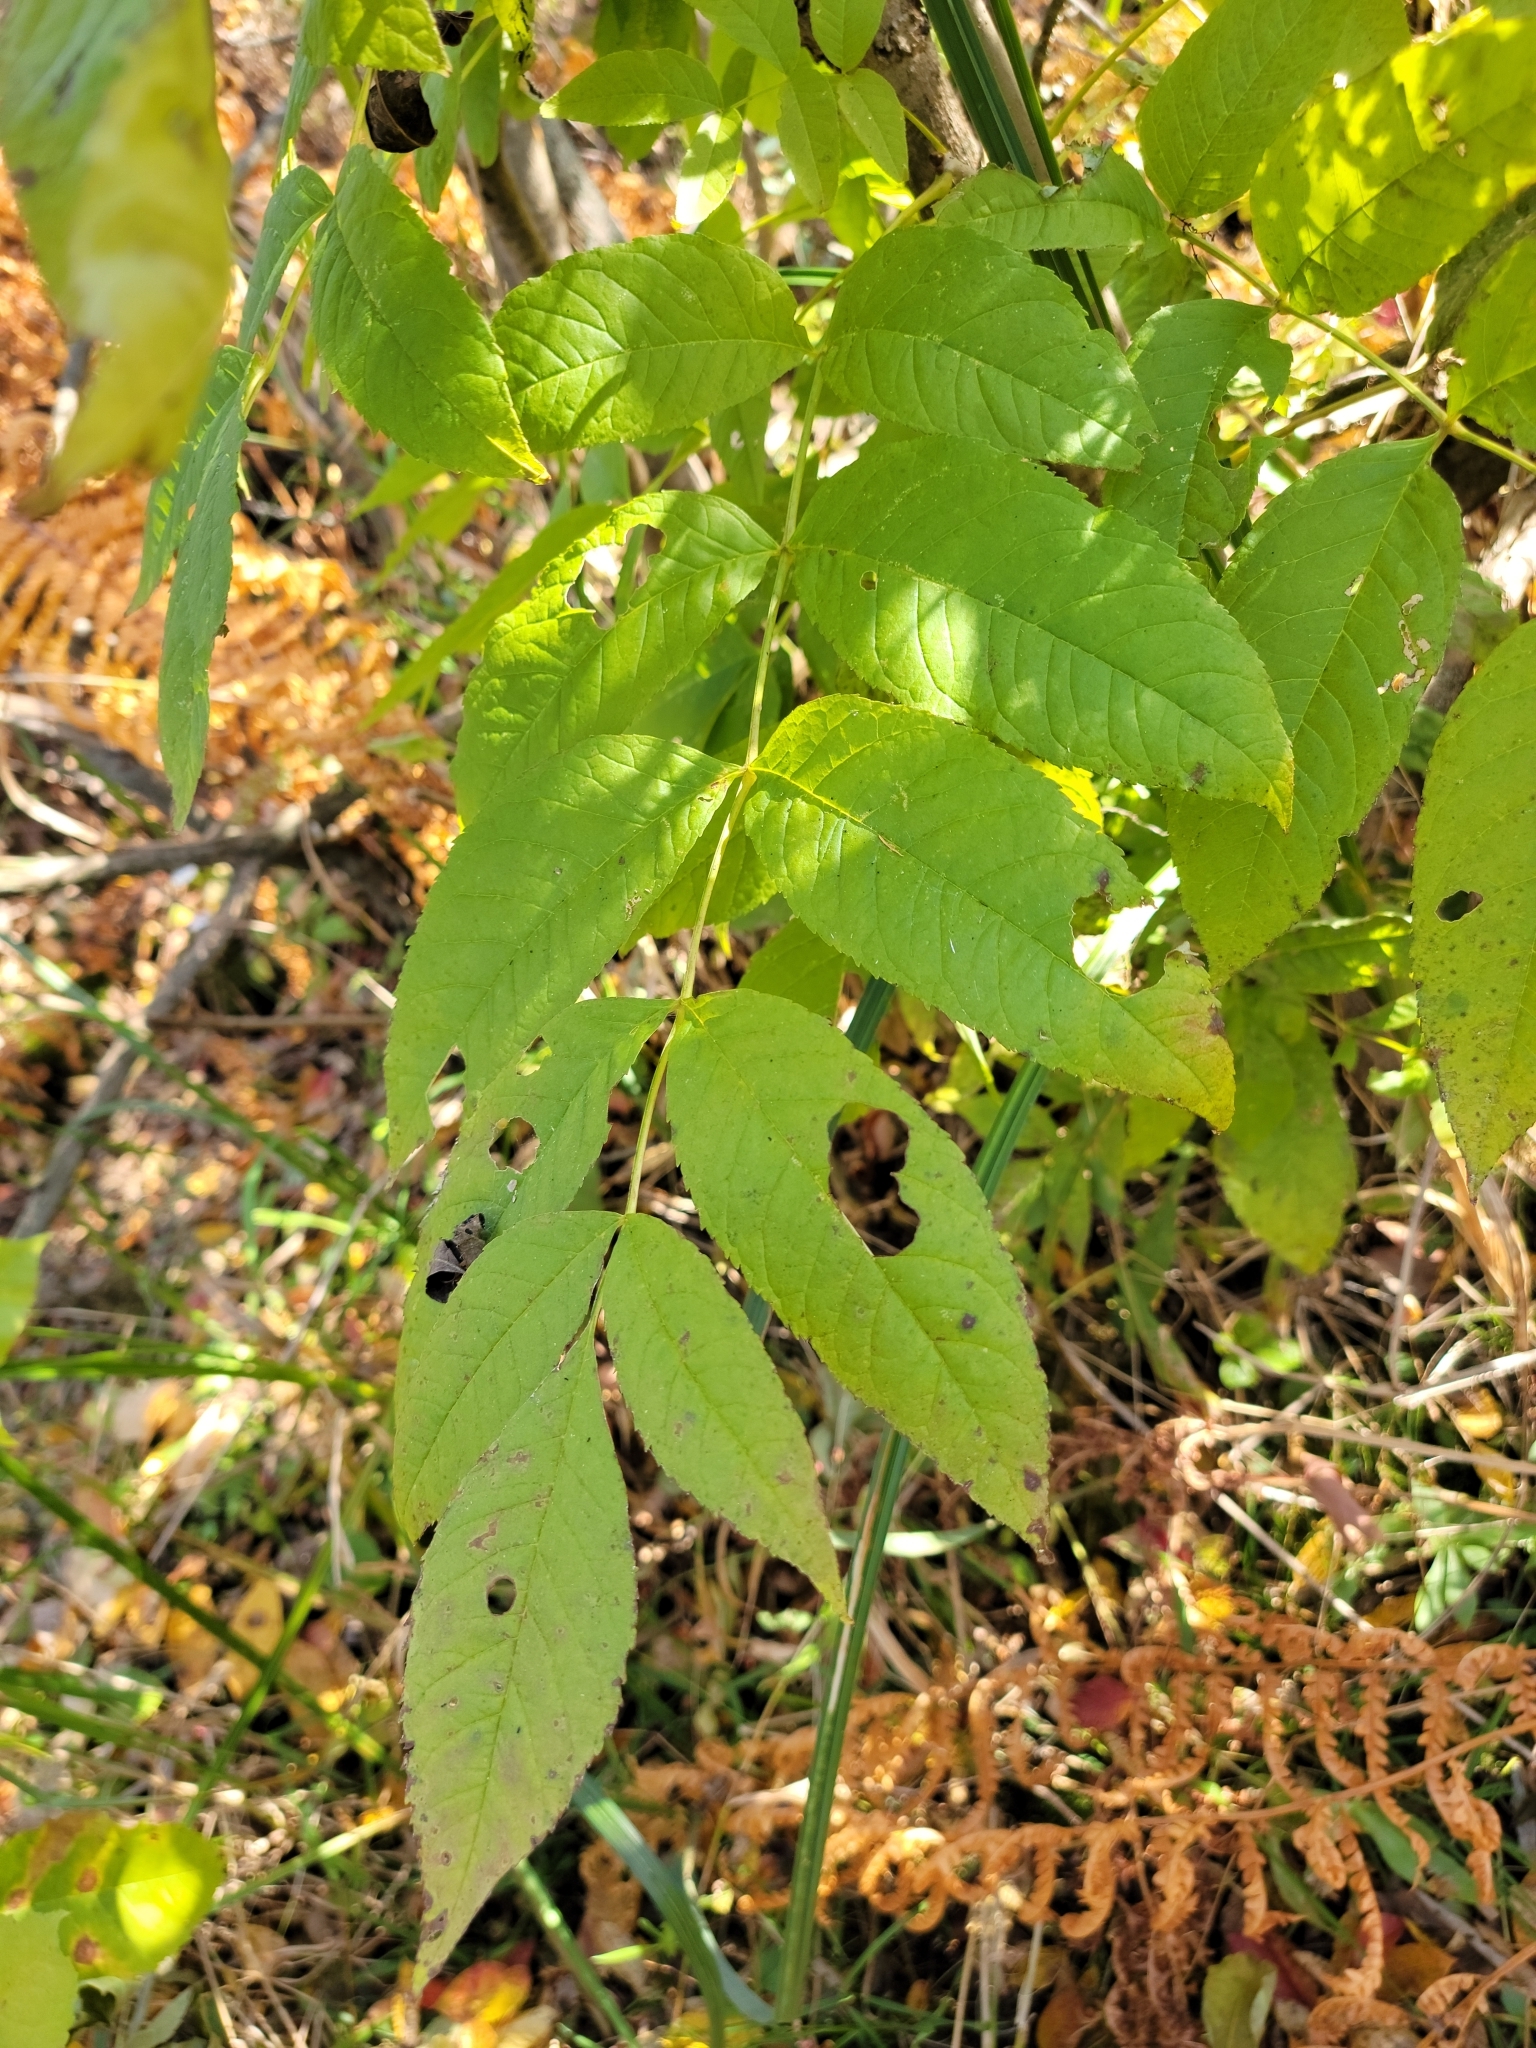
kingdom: Plantae
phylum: Tracheophyta
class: Magnoliopsida
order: Lamiales
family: Oleaceae
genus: Fraxinus
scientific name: Fraxinus nigra
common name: Black ash
